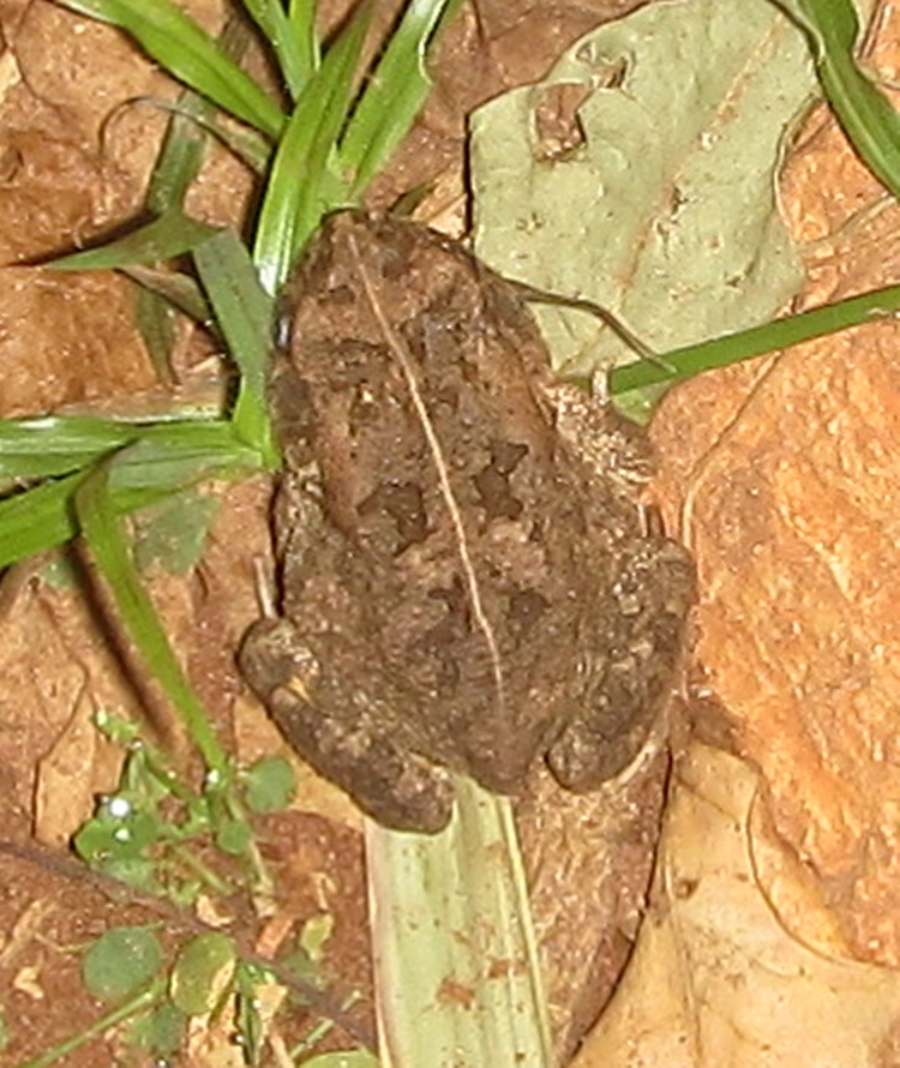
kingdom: Animalia
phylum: Chordata
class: Amphibia
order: Anura
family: Bufonidae
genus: Sclerophrys
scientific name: Sclerophrys gutturalis
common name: African common toad
